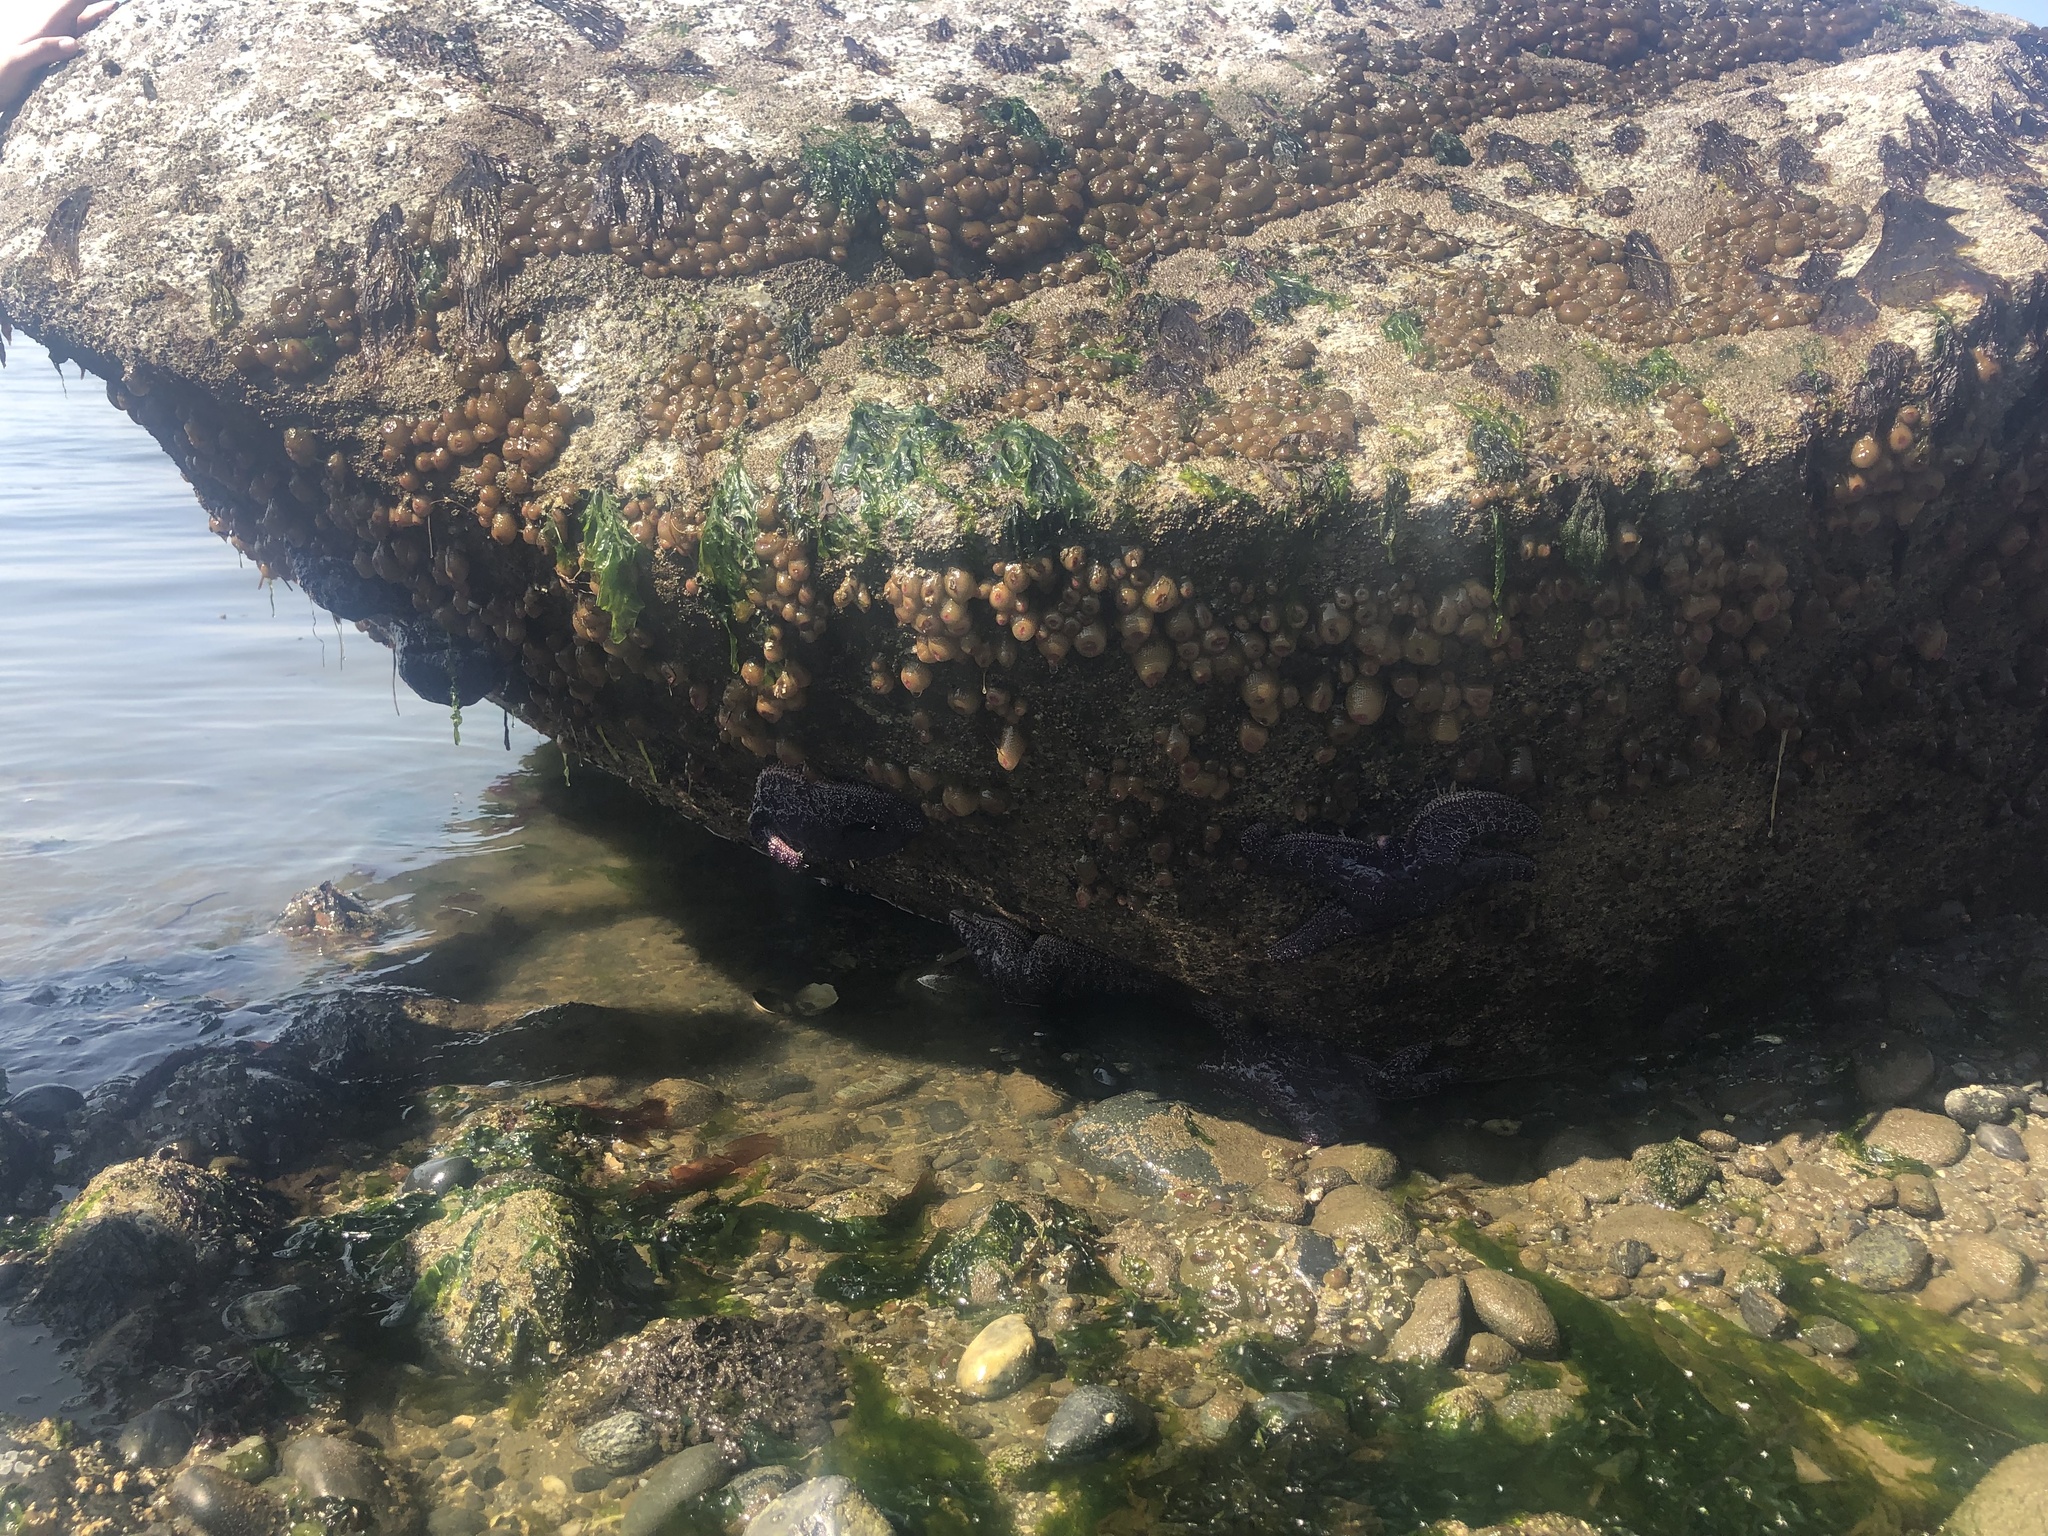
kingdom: Animalia
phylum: Echinodermata
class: Asteroidea
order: Forcipulatida
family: Asteriidae
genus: Pisaster
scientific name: Pisaster ochraceus
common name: Ochre stars
